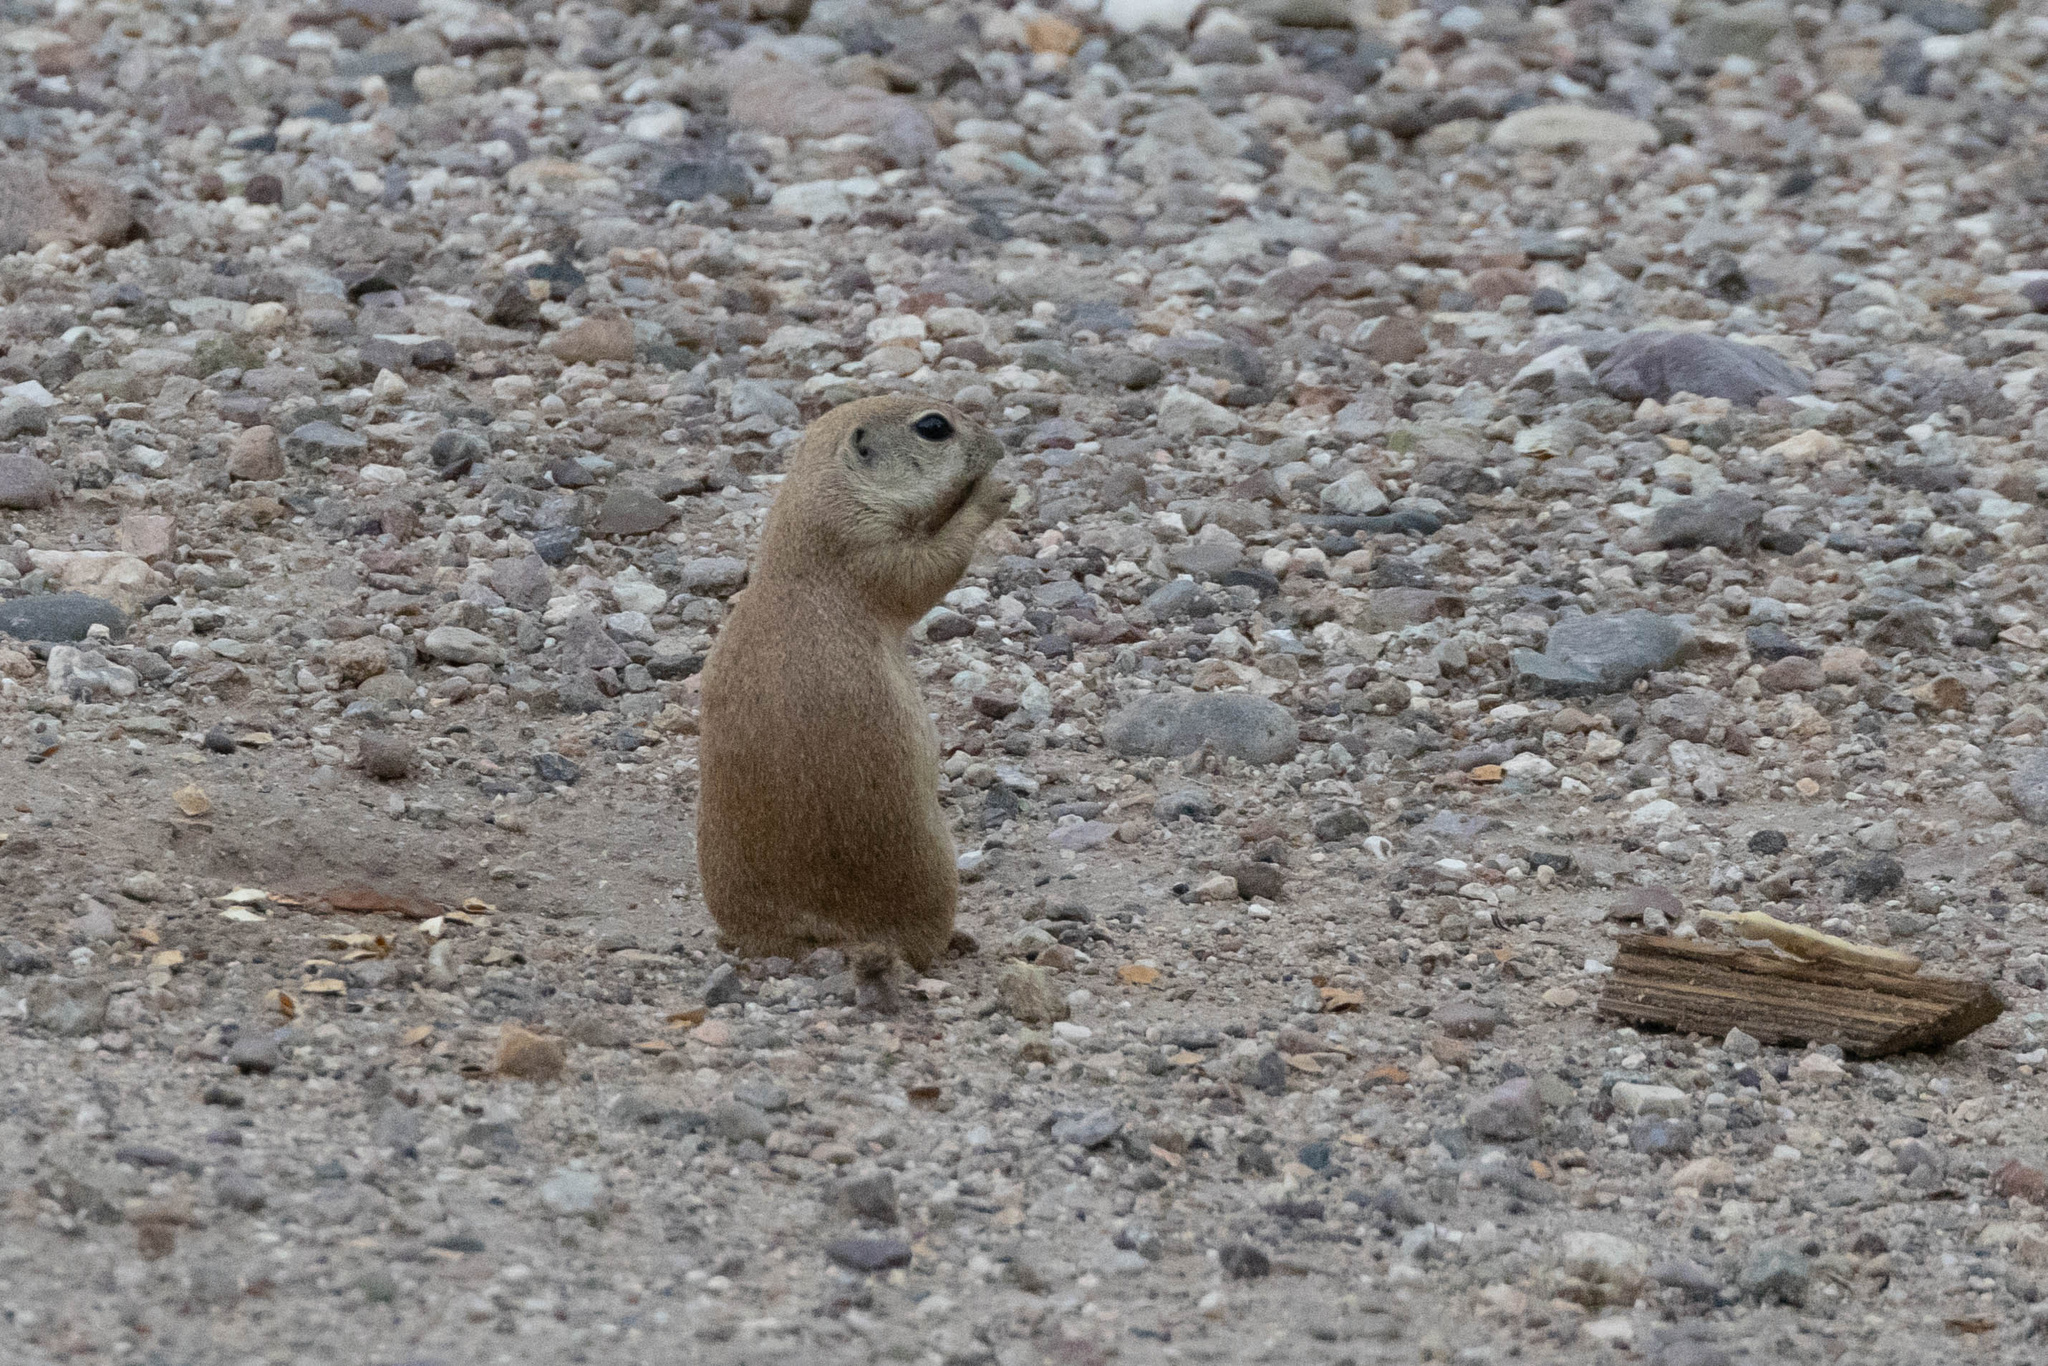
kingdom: Animalia
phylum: Chordata
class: Mammalia
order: Rodentia
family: Sciuridae
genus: Xerospermophilus
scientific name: Xerospermophilus tereticaudus
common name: Round-tailed ground squirrel
